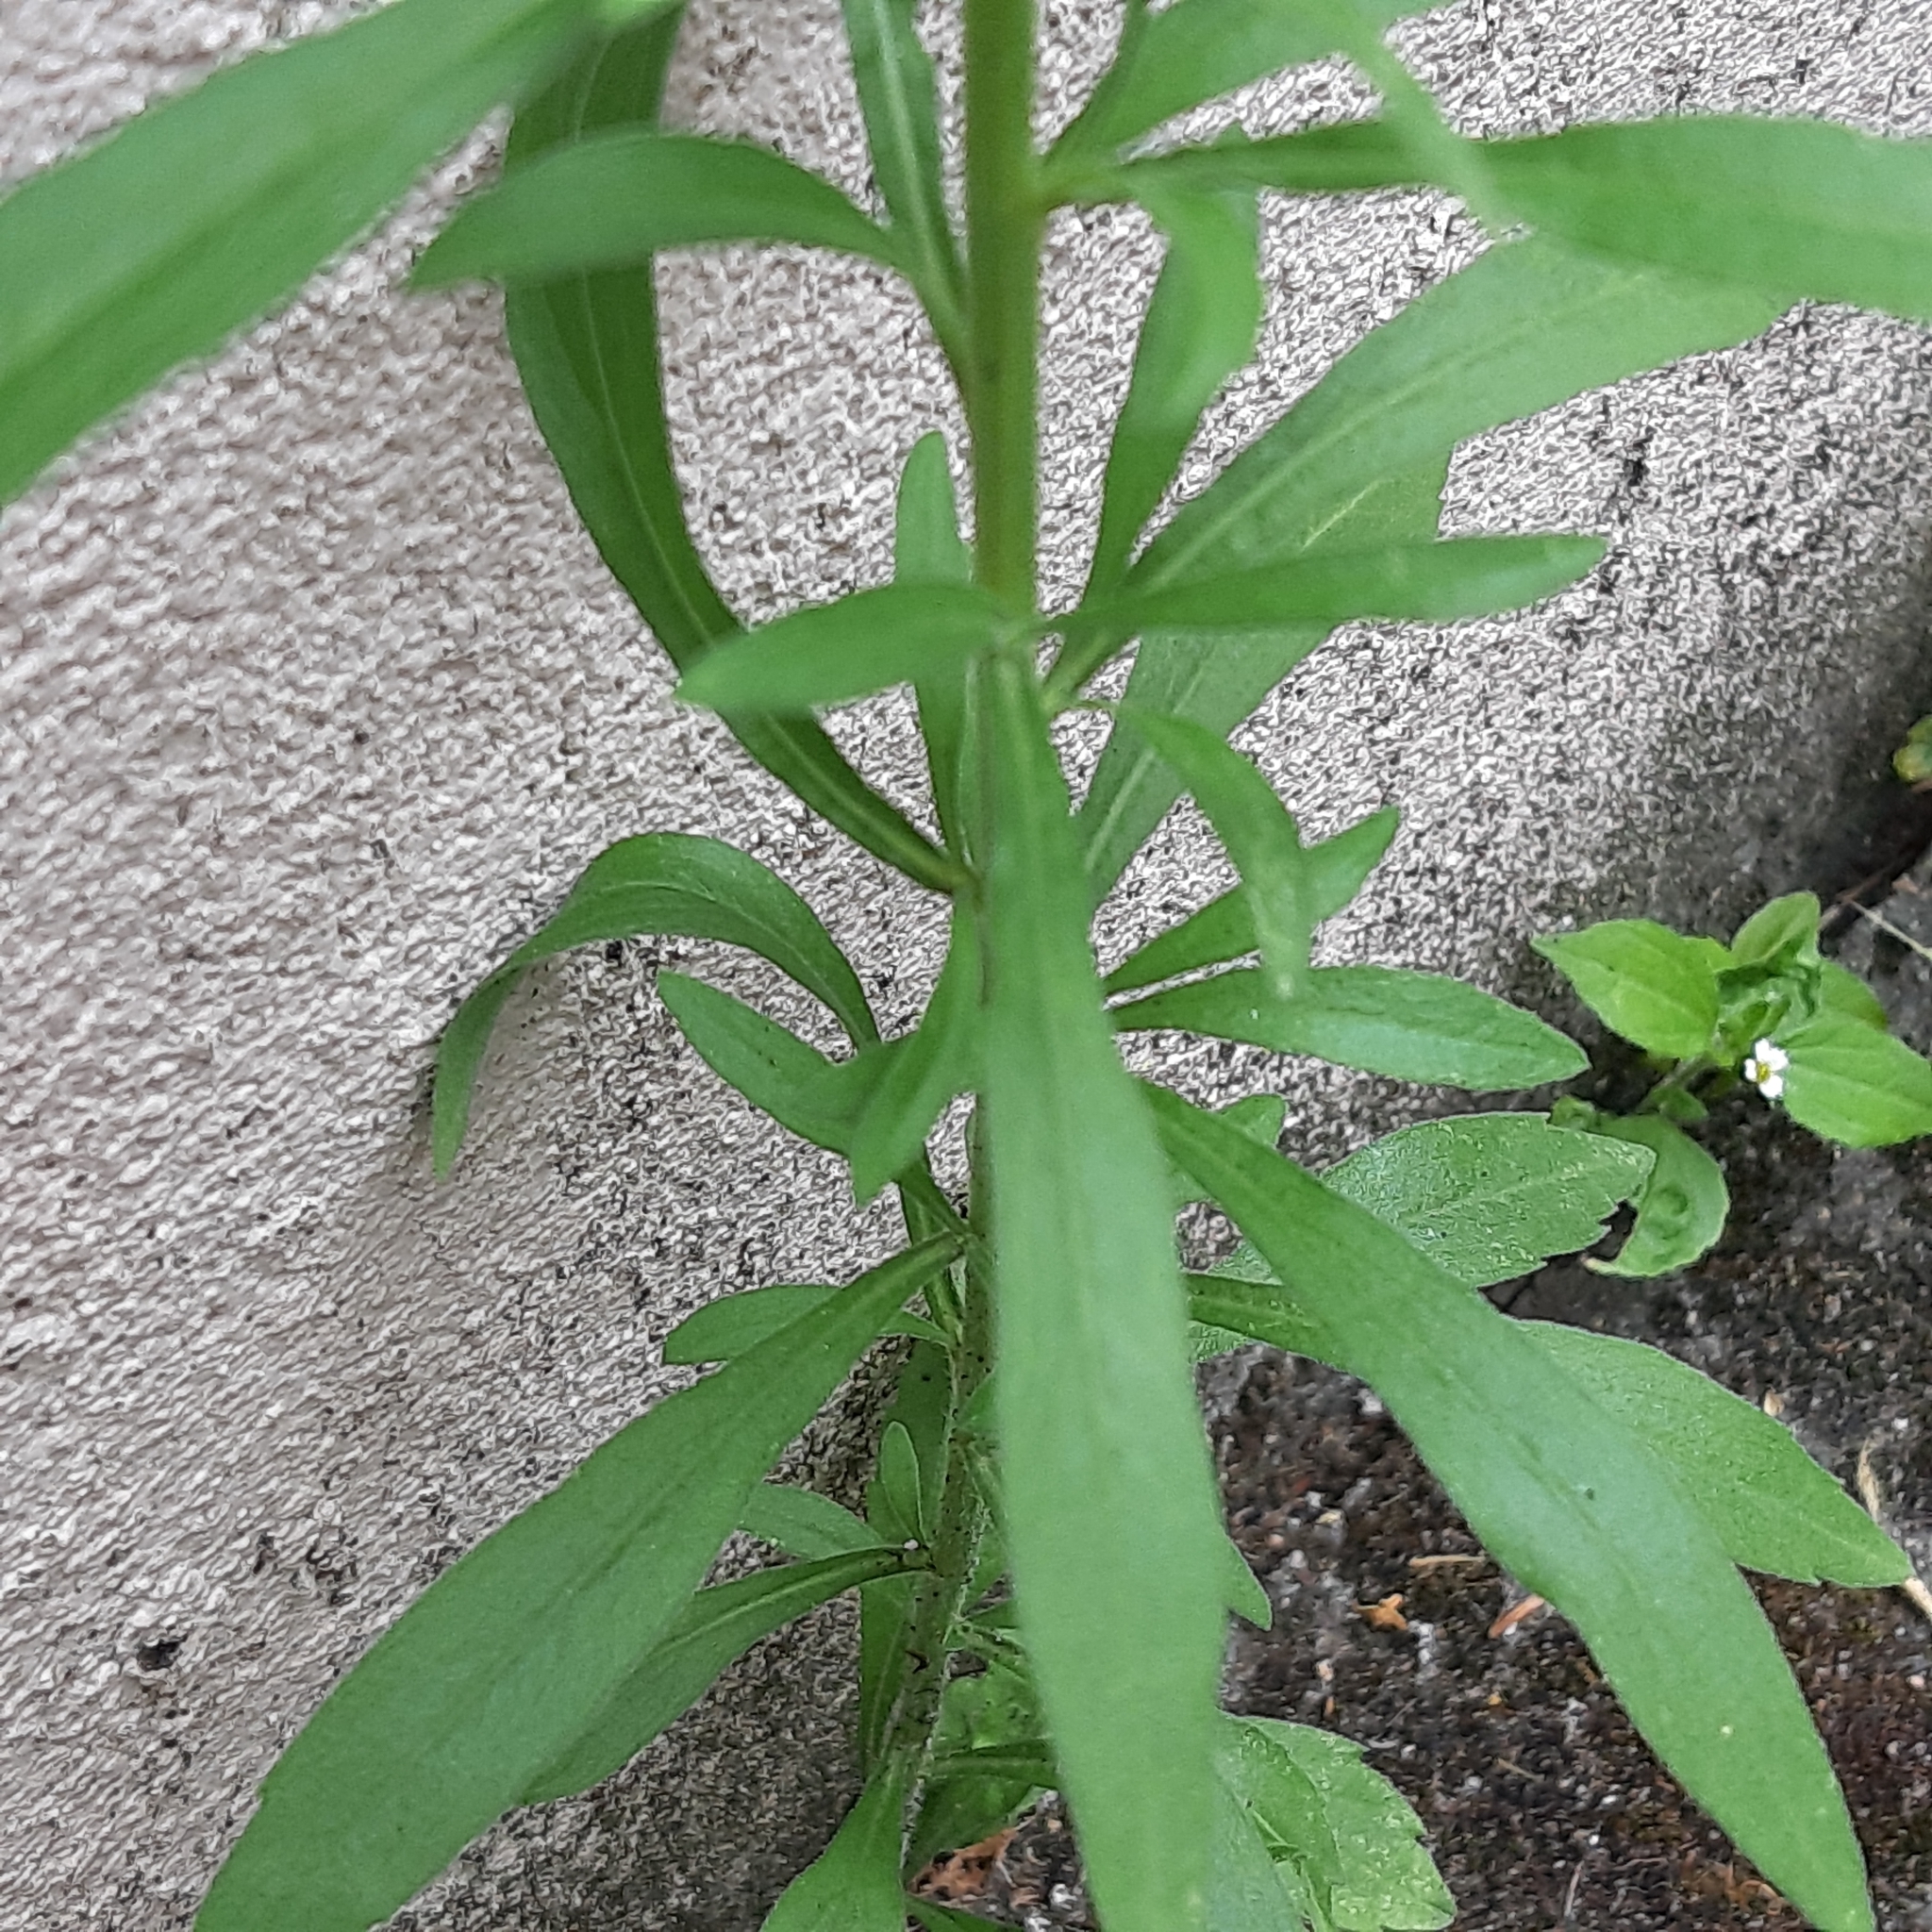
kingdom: Plantae
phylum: Tracheophyta
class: Magnoliopsida
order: Asterales
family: Asteraceae
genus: Erigeron
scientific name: Erigeron sumatrensis
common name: Daisy
